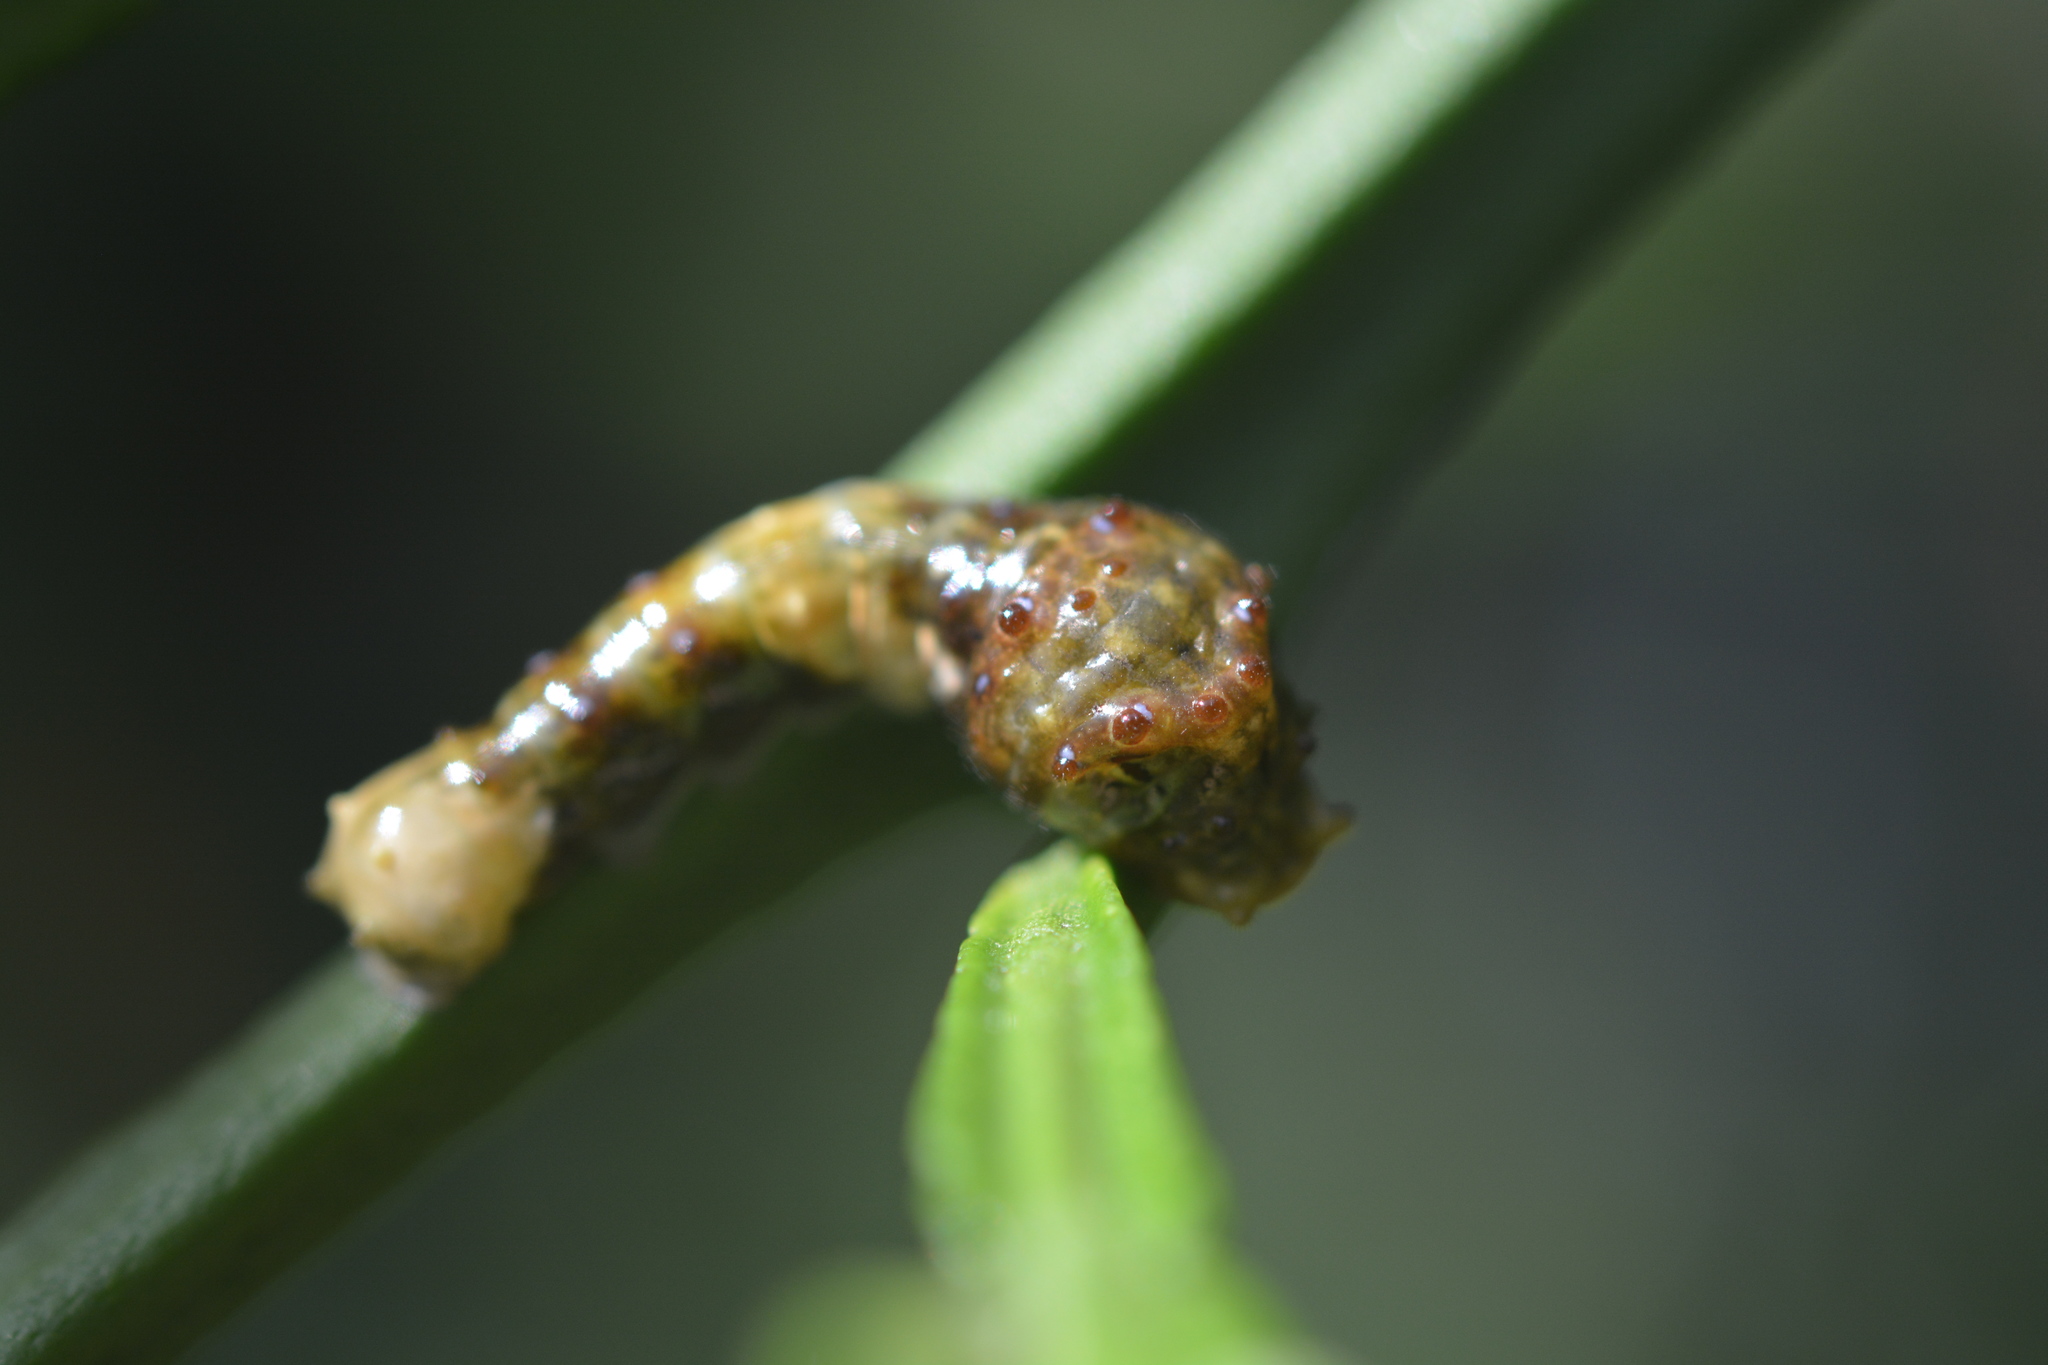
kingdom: Animalia
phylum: Arthropoda
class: Insecta
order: Lepidoptera
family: Papilionidae
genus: Papilio
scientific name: Papilio cresphontes
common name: Giant swallowtail
